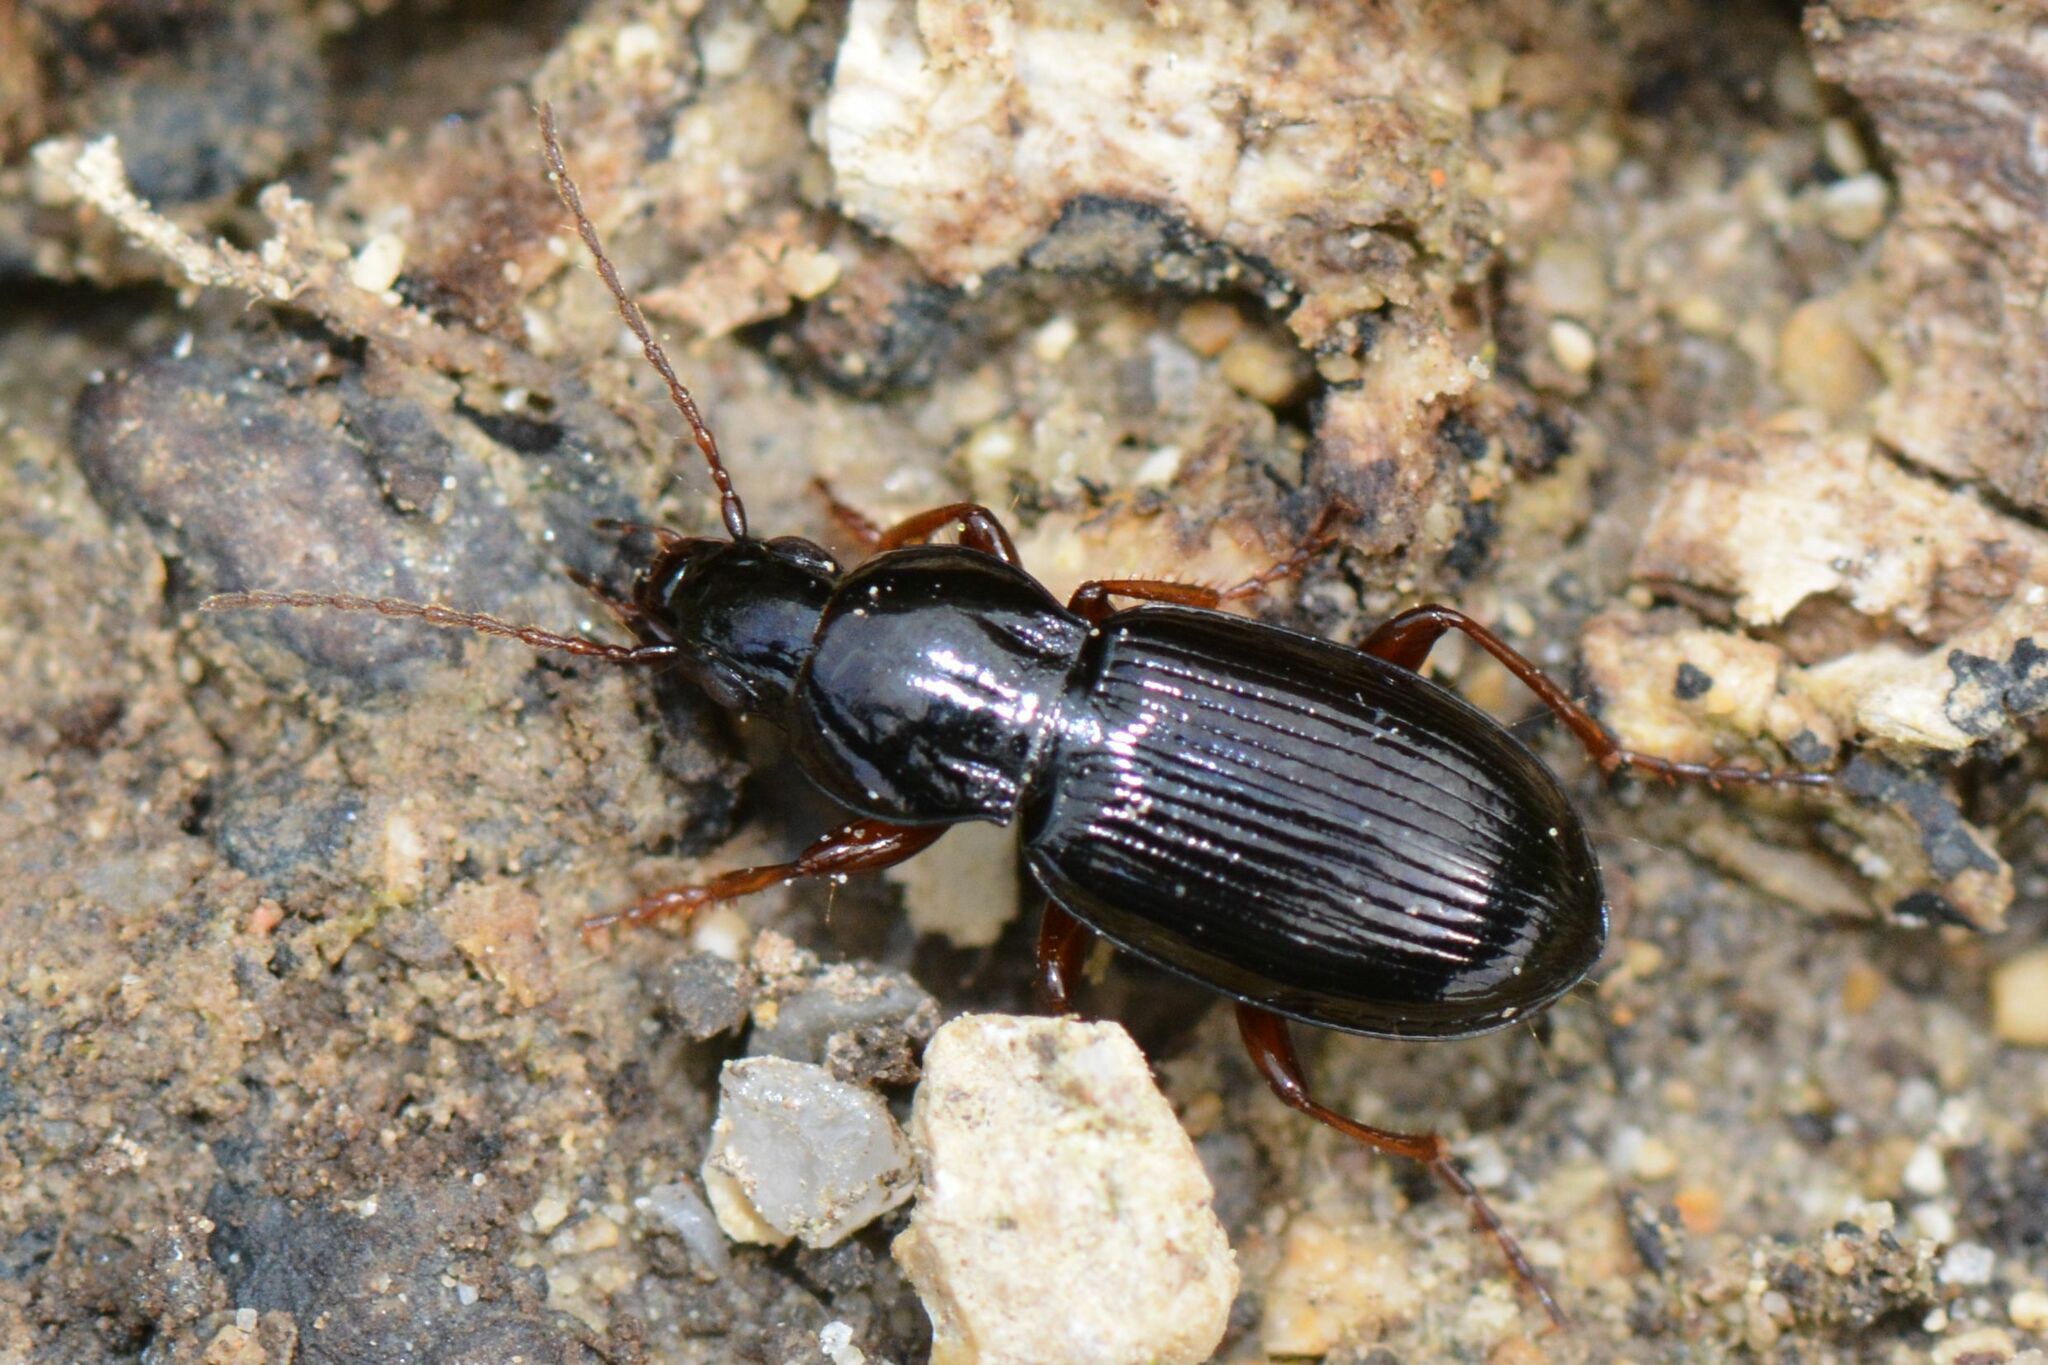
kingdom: Animalia
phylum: Arthropoda
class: Insecta
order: Coleoptera
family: Carabidae
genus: Pterostichus
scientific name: Pterostichus ovoideus
